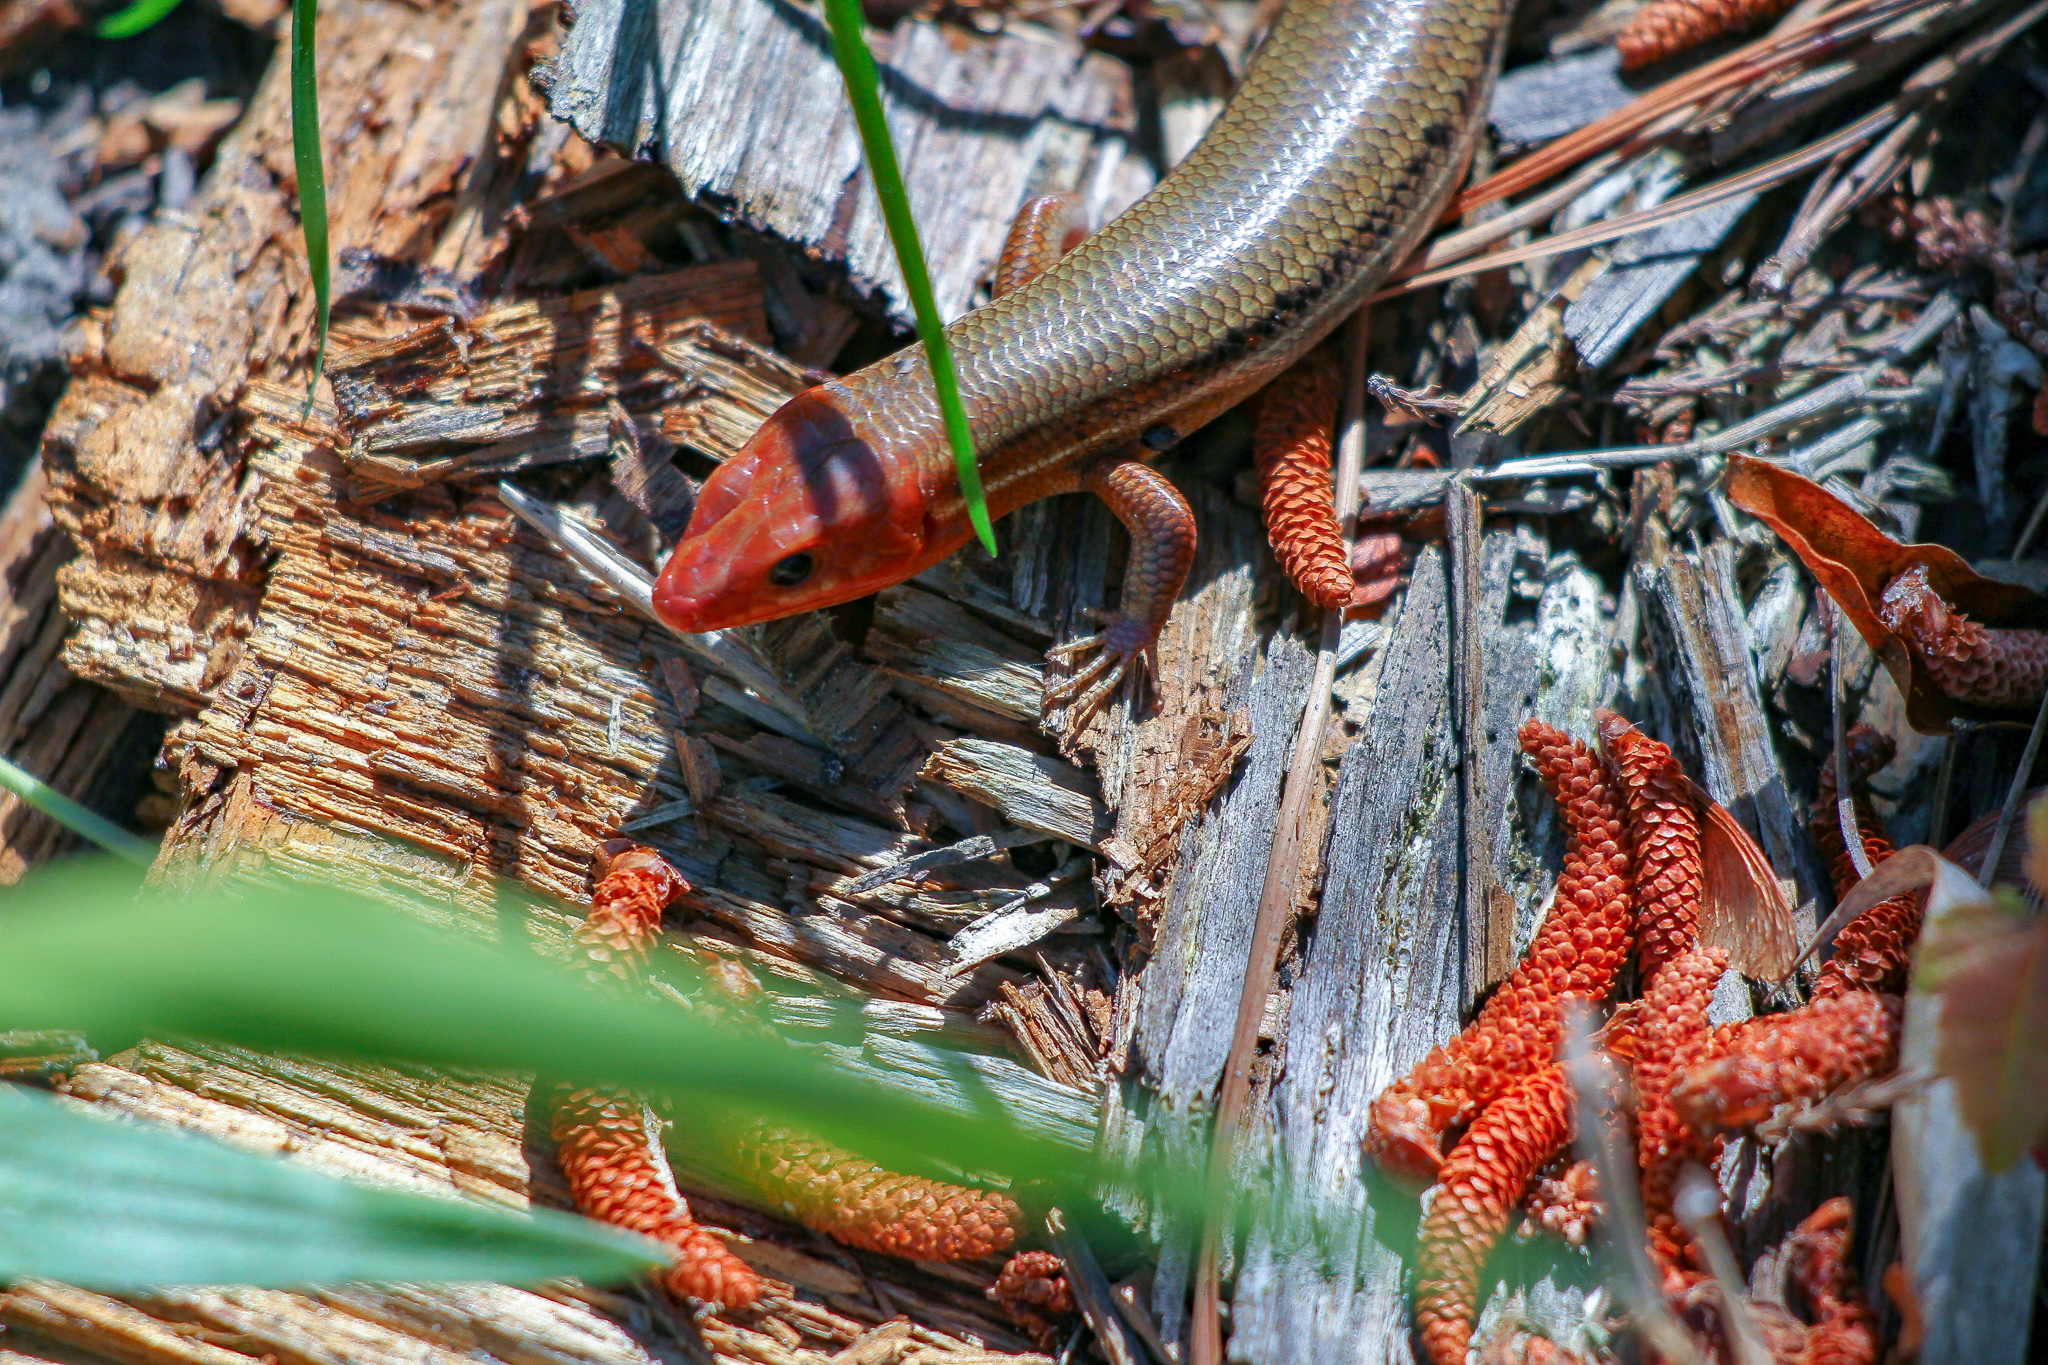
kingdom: Animalia
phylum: Chordata
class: Squamata
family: Scincidae
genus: Plestiodon
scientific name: Plestiodon inexpectatus
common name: Southeastern five-lined skink
